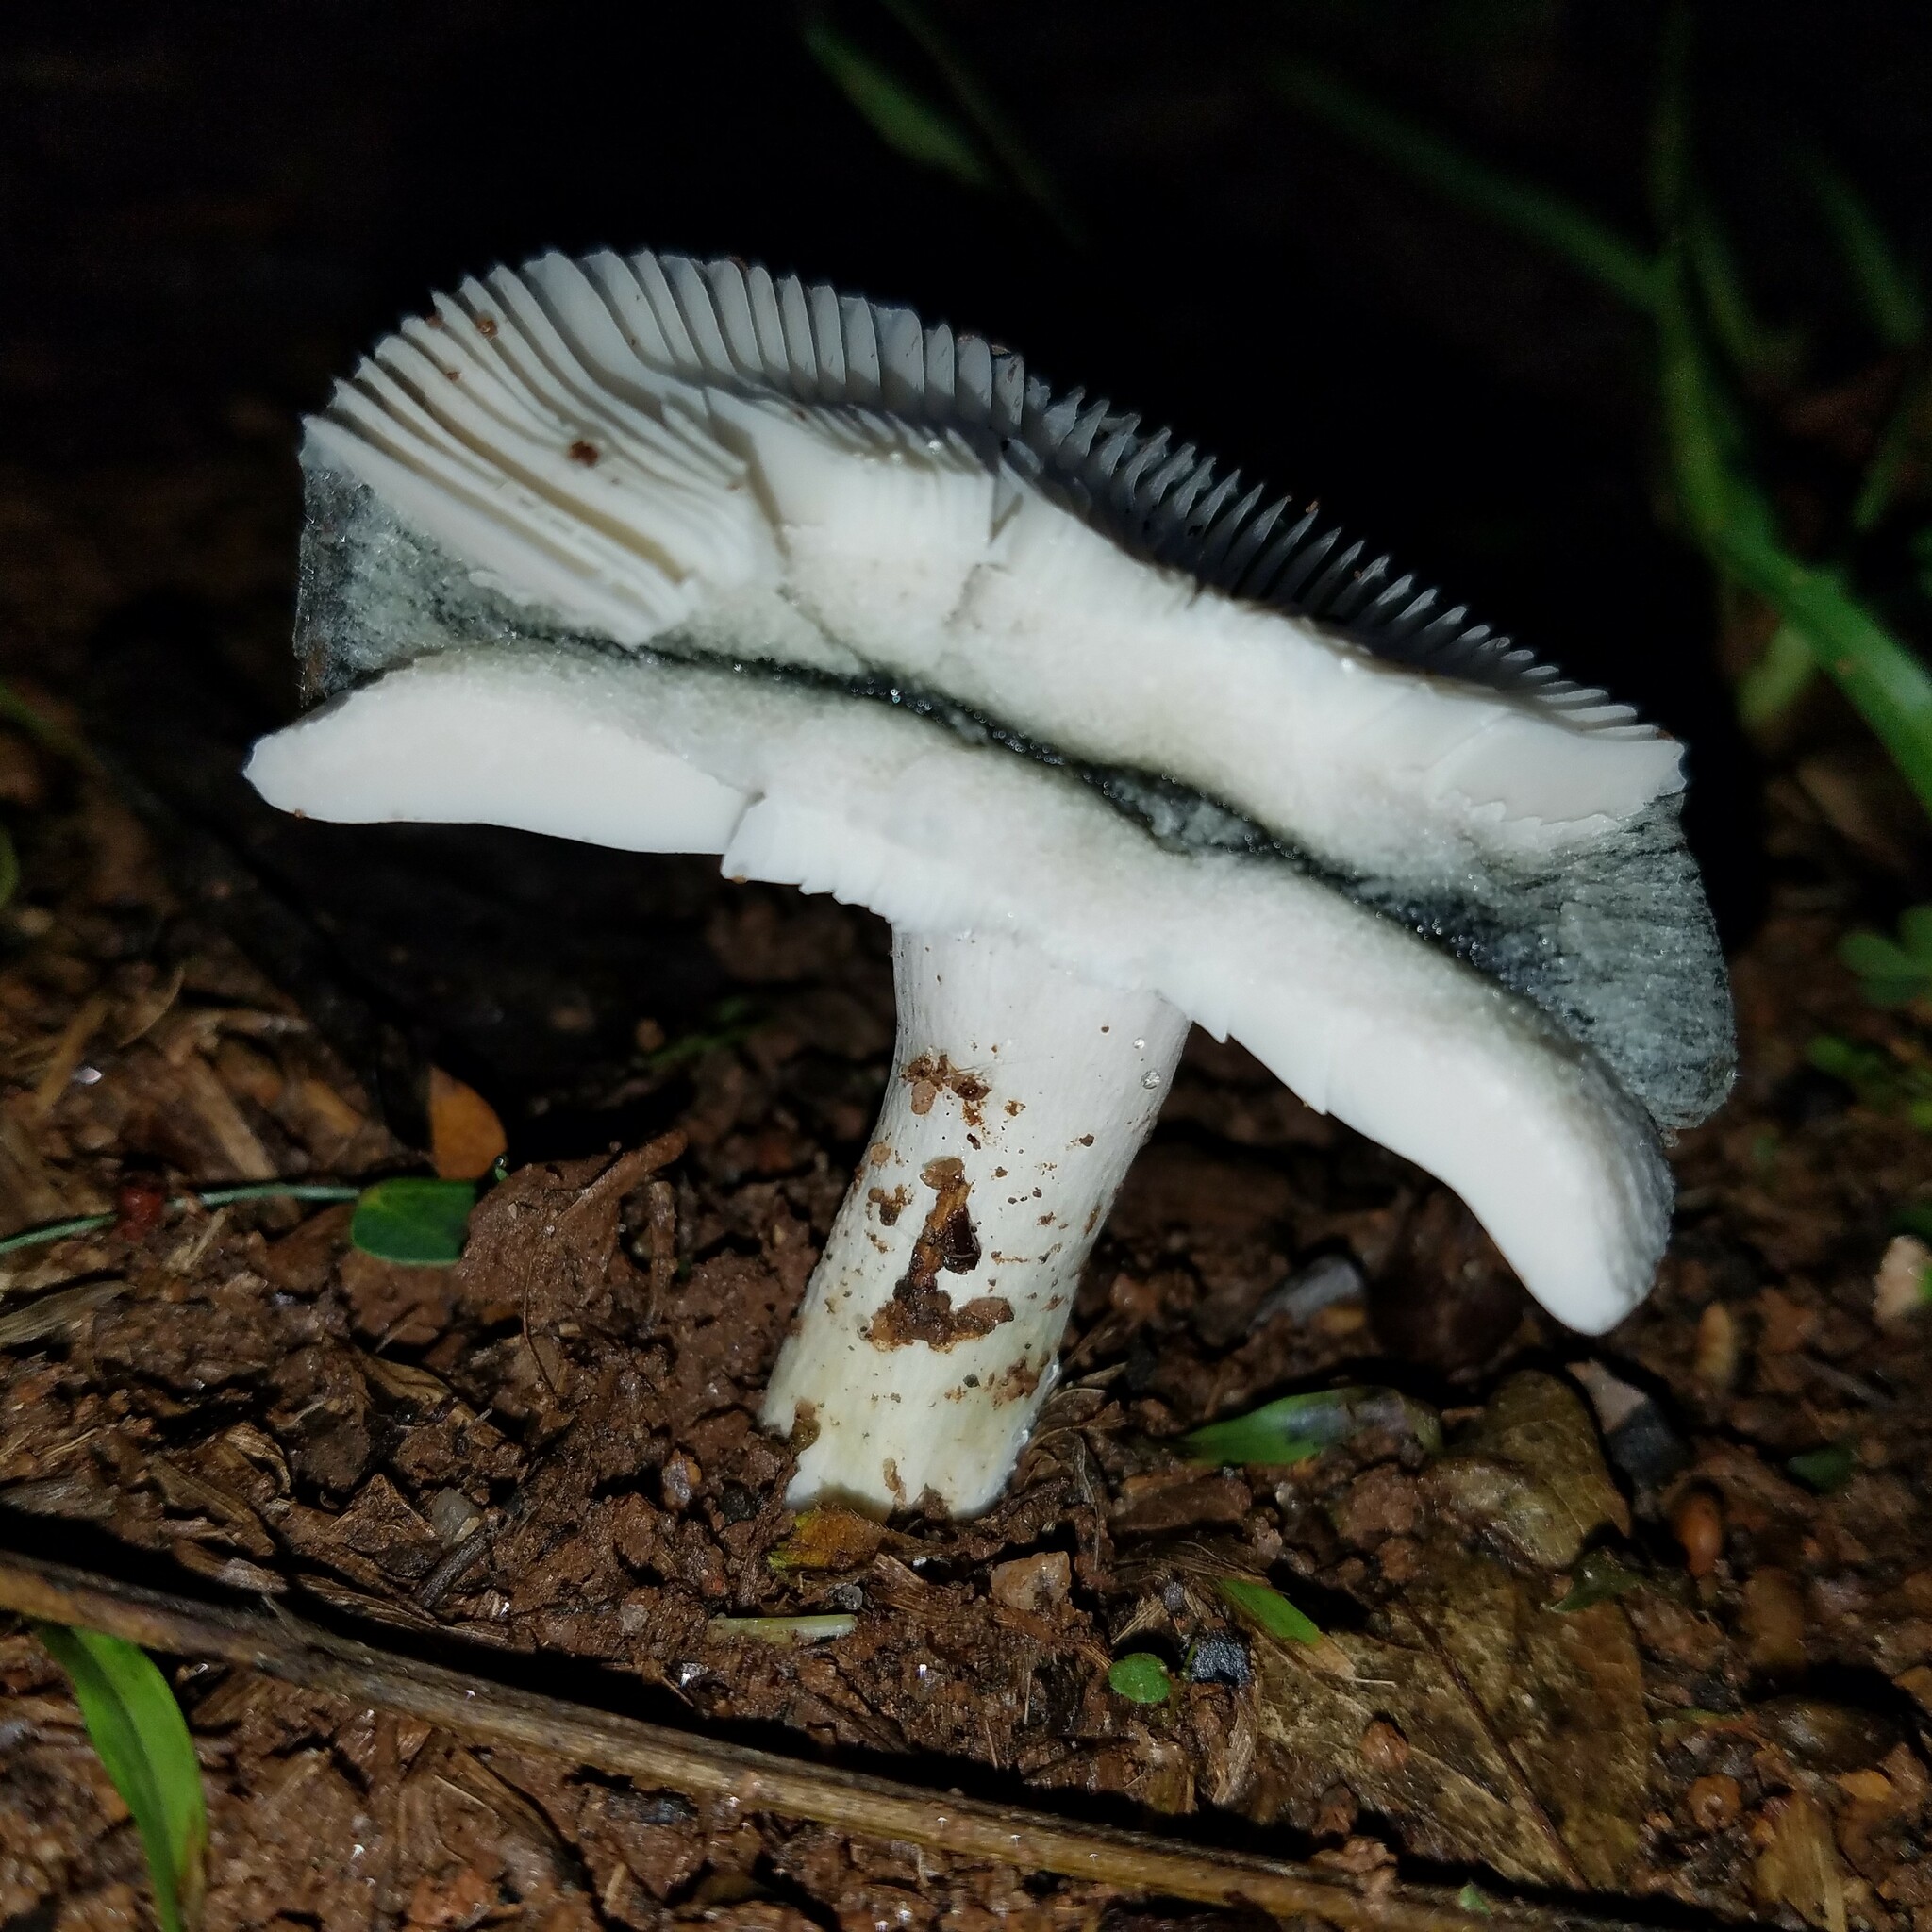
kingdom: Fungi
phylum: Basidiomycota
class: Agaricomycetes
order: Russulales
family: Russulaceae
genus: Russula
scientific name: Russula
